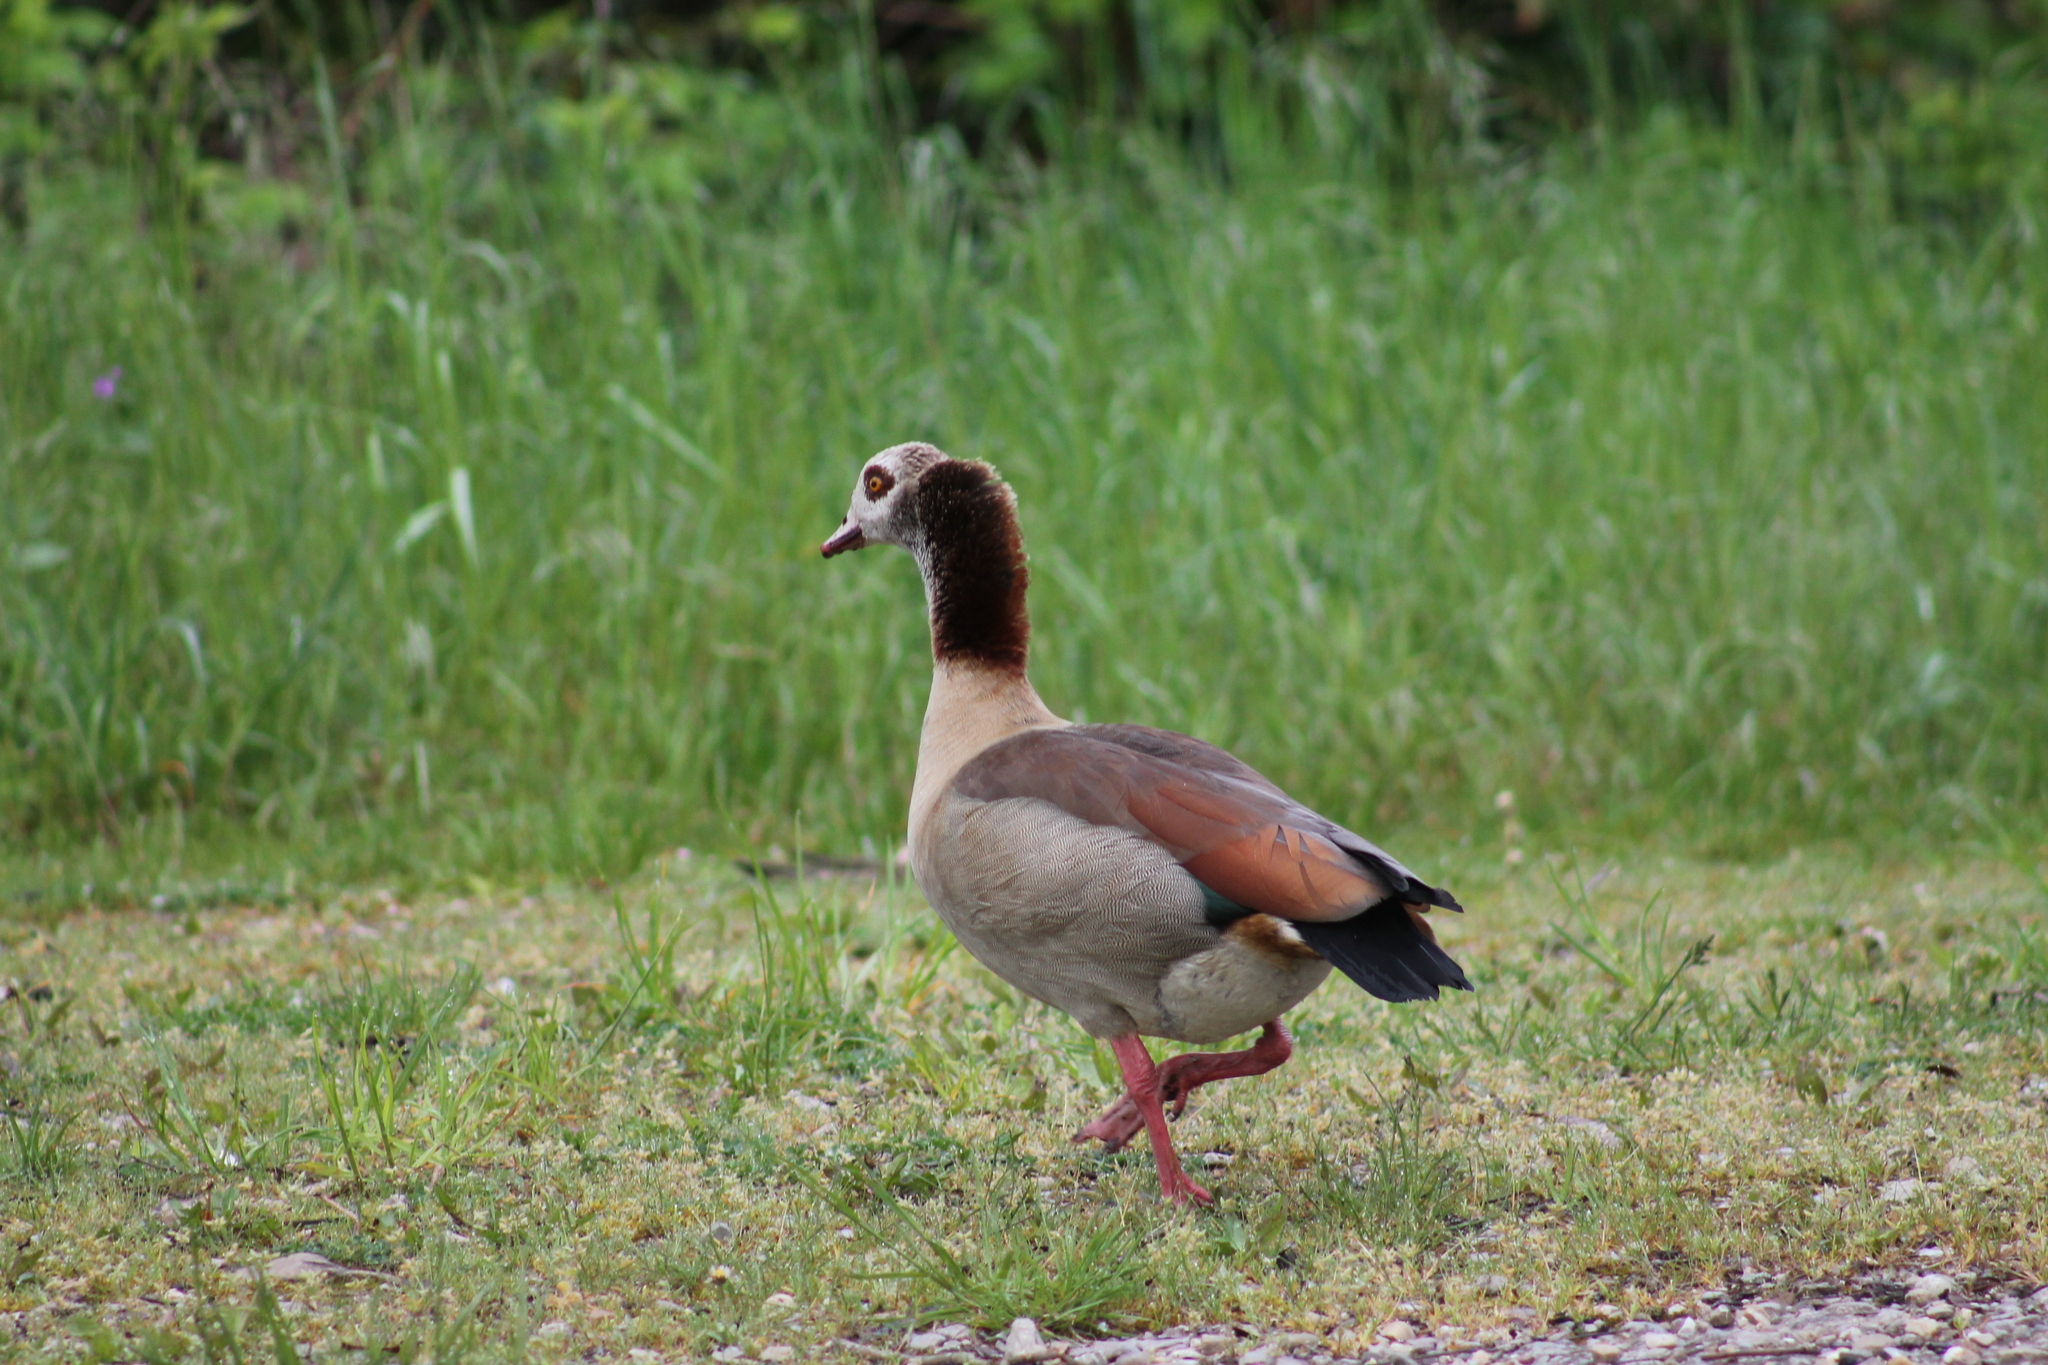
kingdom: Animalia
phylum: Chordata
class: Aves
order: Anseriformes
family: Anatidae
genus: Alopochen
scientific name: Alopochen aegyptiaca
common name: Egyptian goose
